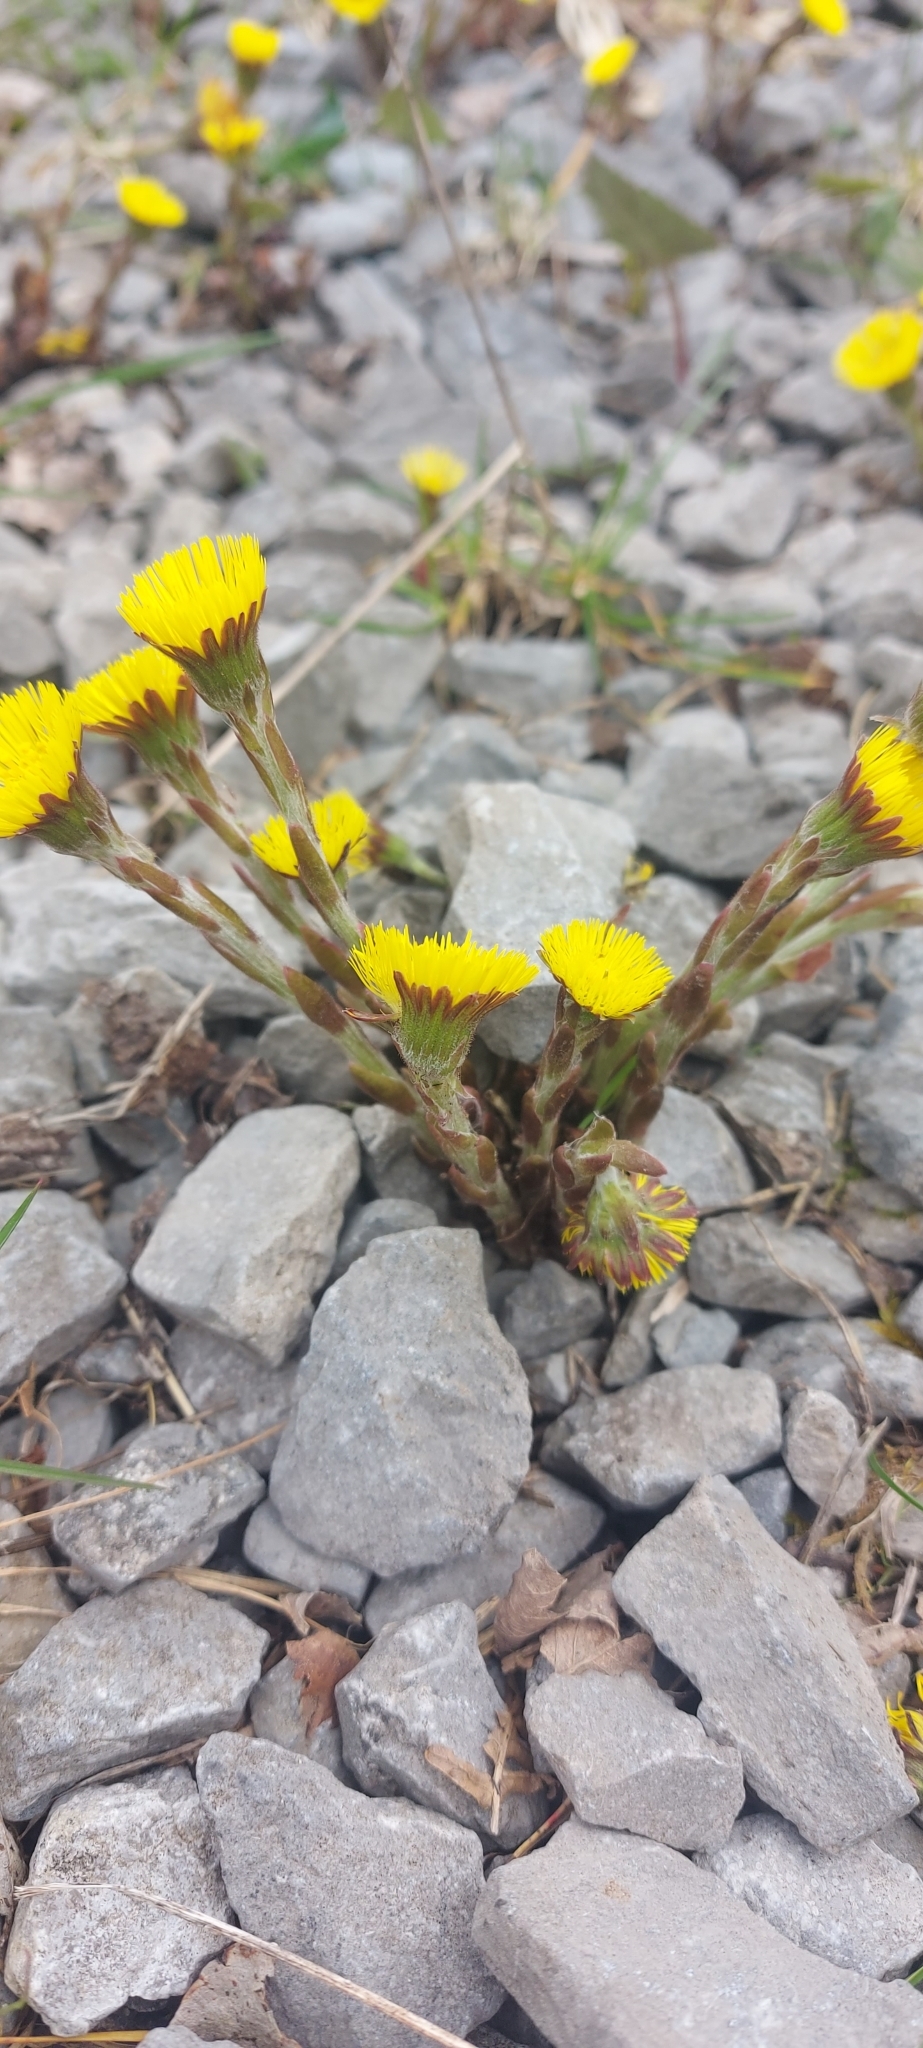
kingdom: Plantae
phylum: Tracheophyta
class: Magnoliopsida
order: Asterales
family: Asteraceae
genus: Tussilago
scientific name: Tussilago farfara
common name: Coltsfoot
